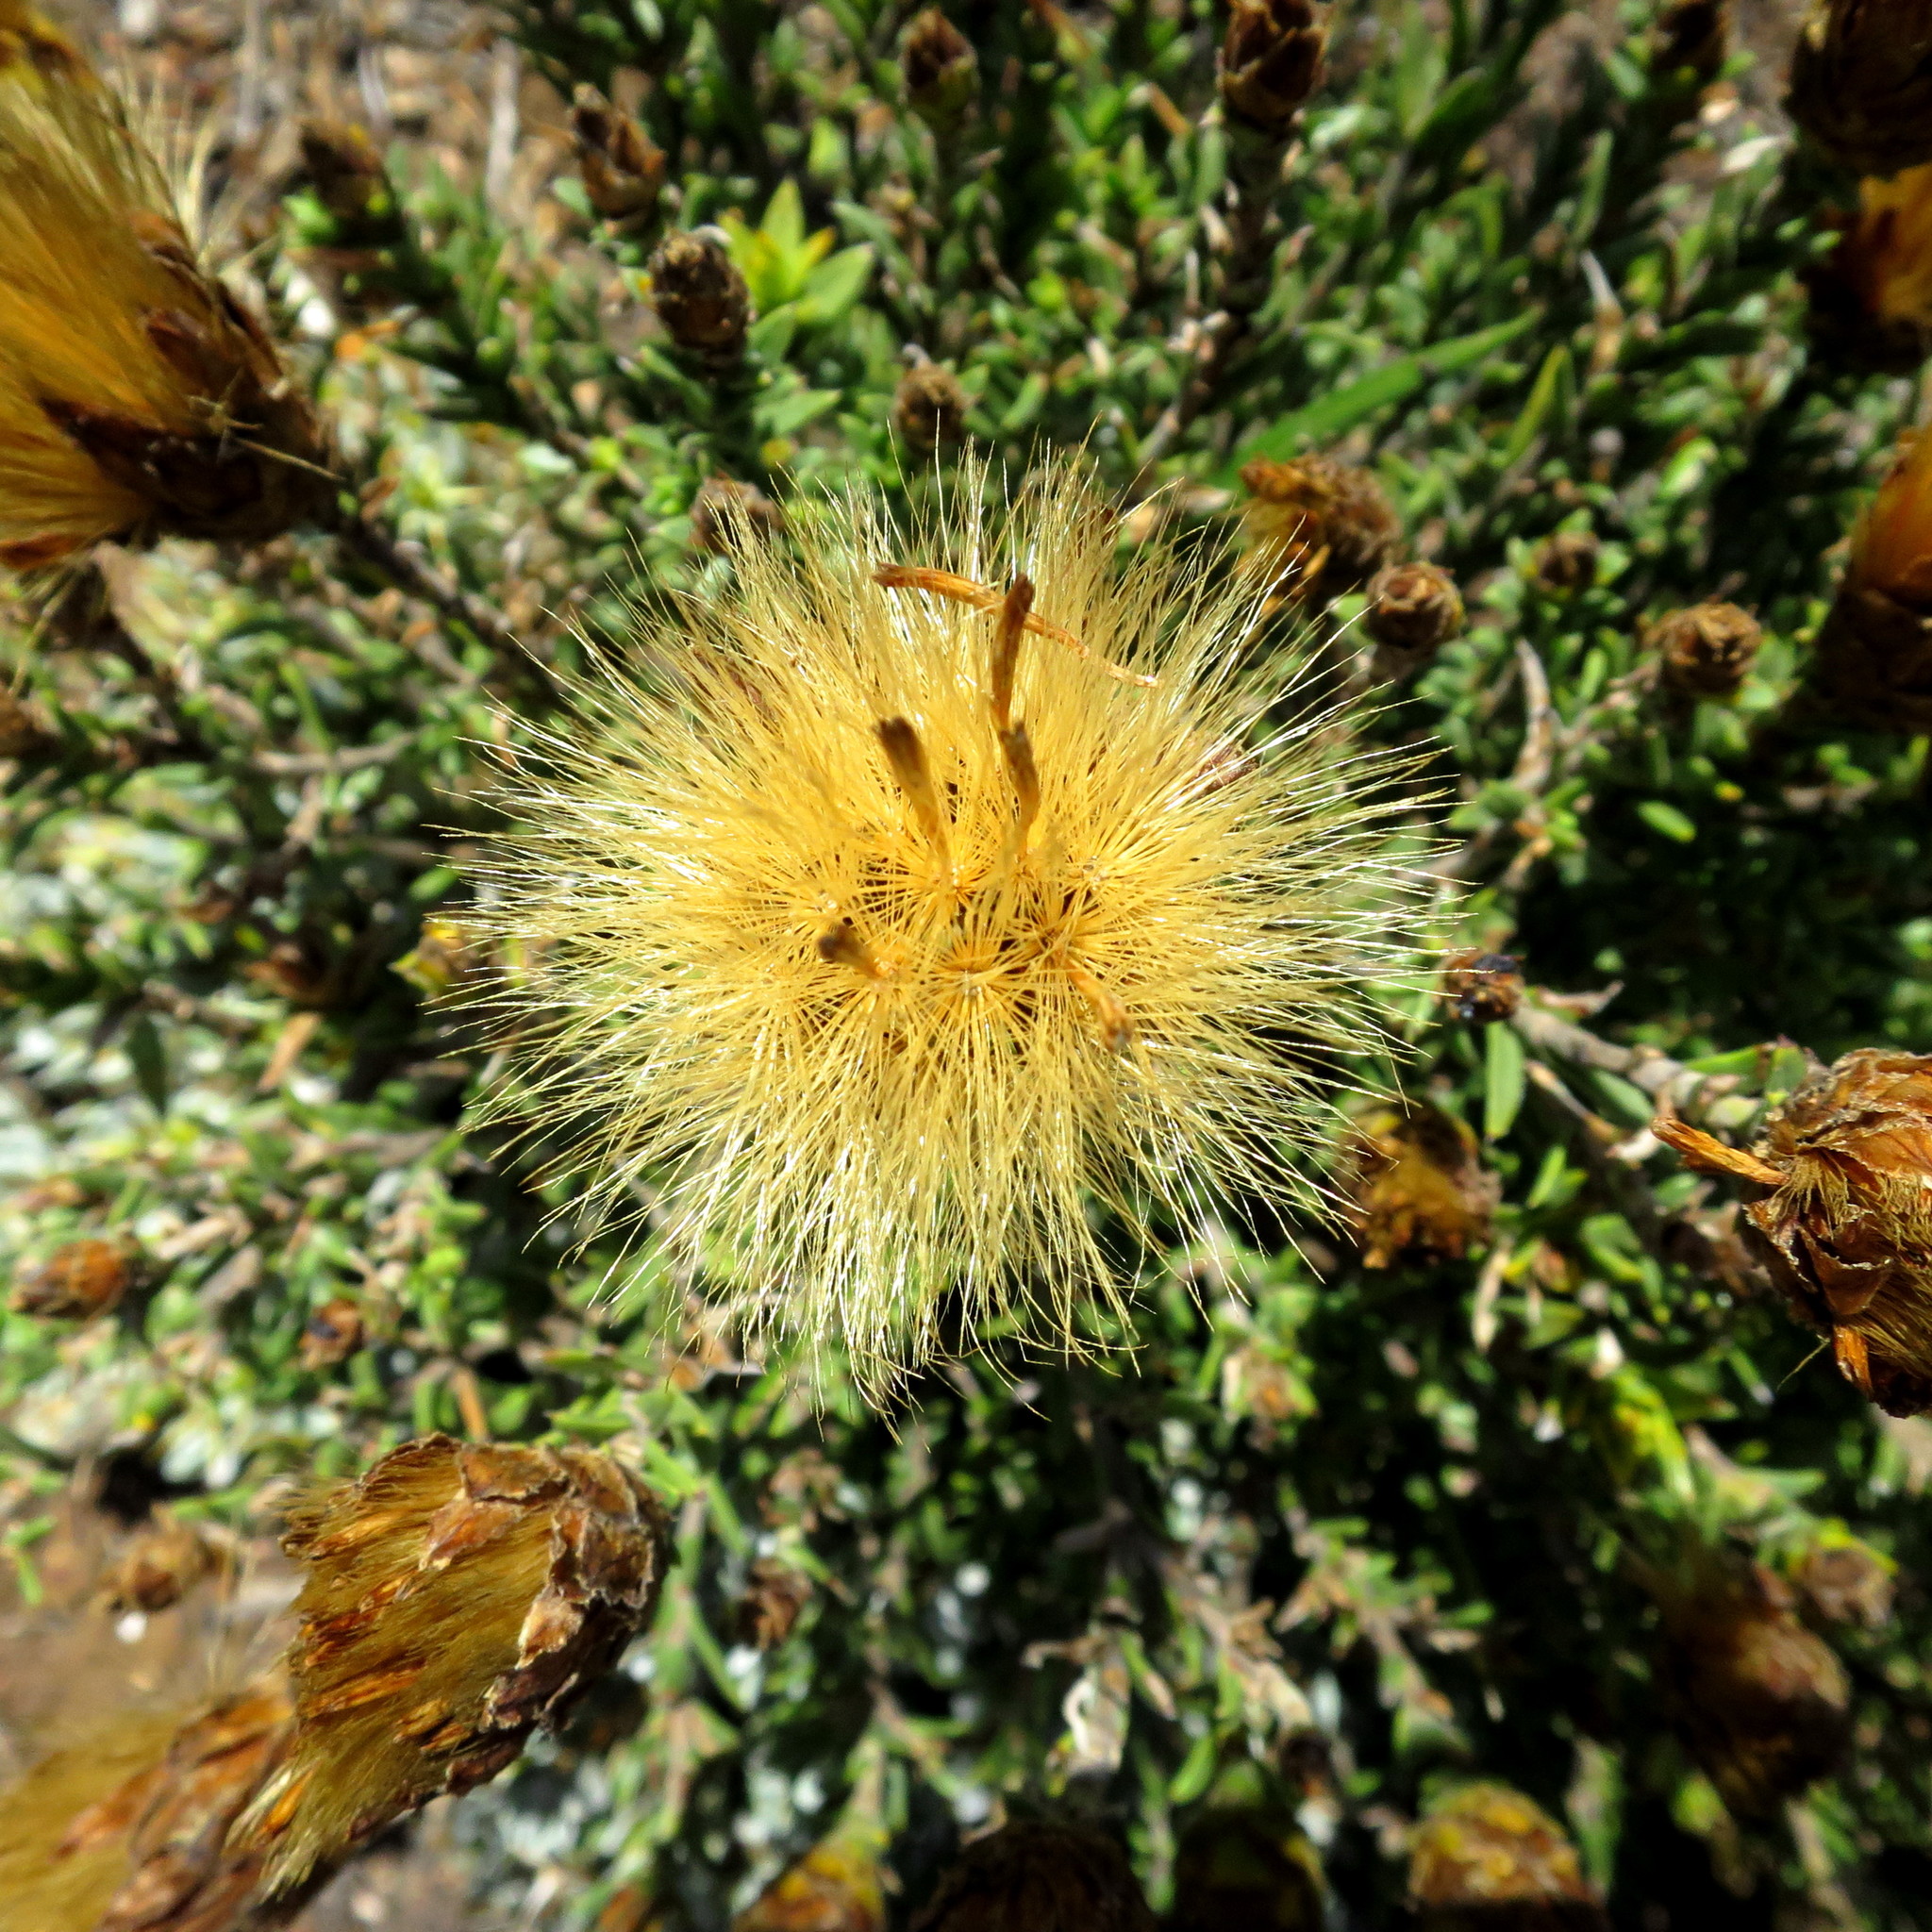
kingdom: Plantae
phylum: Tracheophyta
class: Magnoliopsida
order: Asterales
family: Asteraceae
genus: Pteronia
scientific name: Pteronia hutchinsoniana
